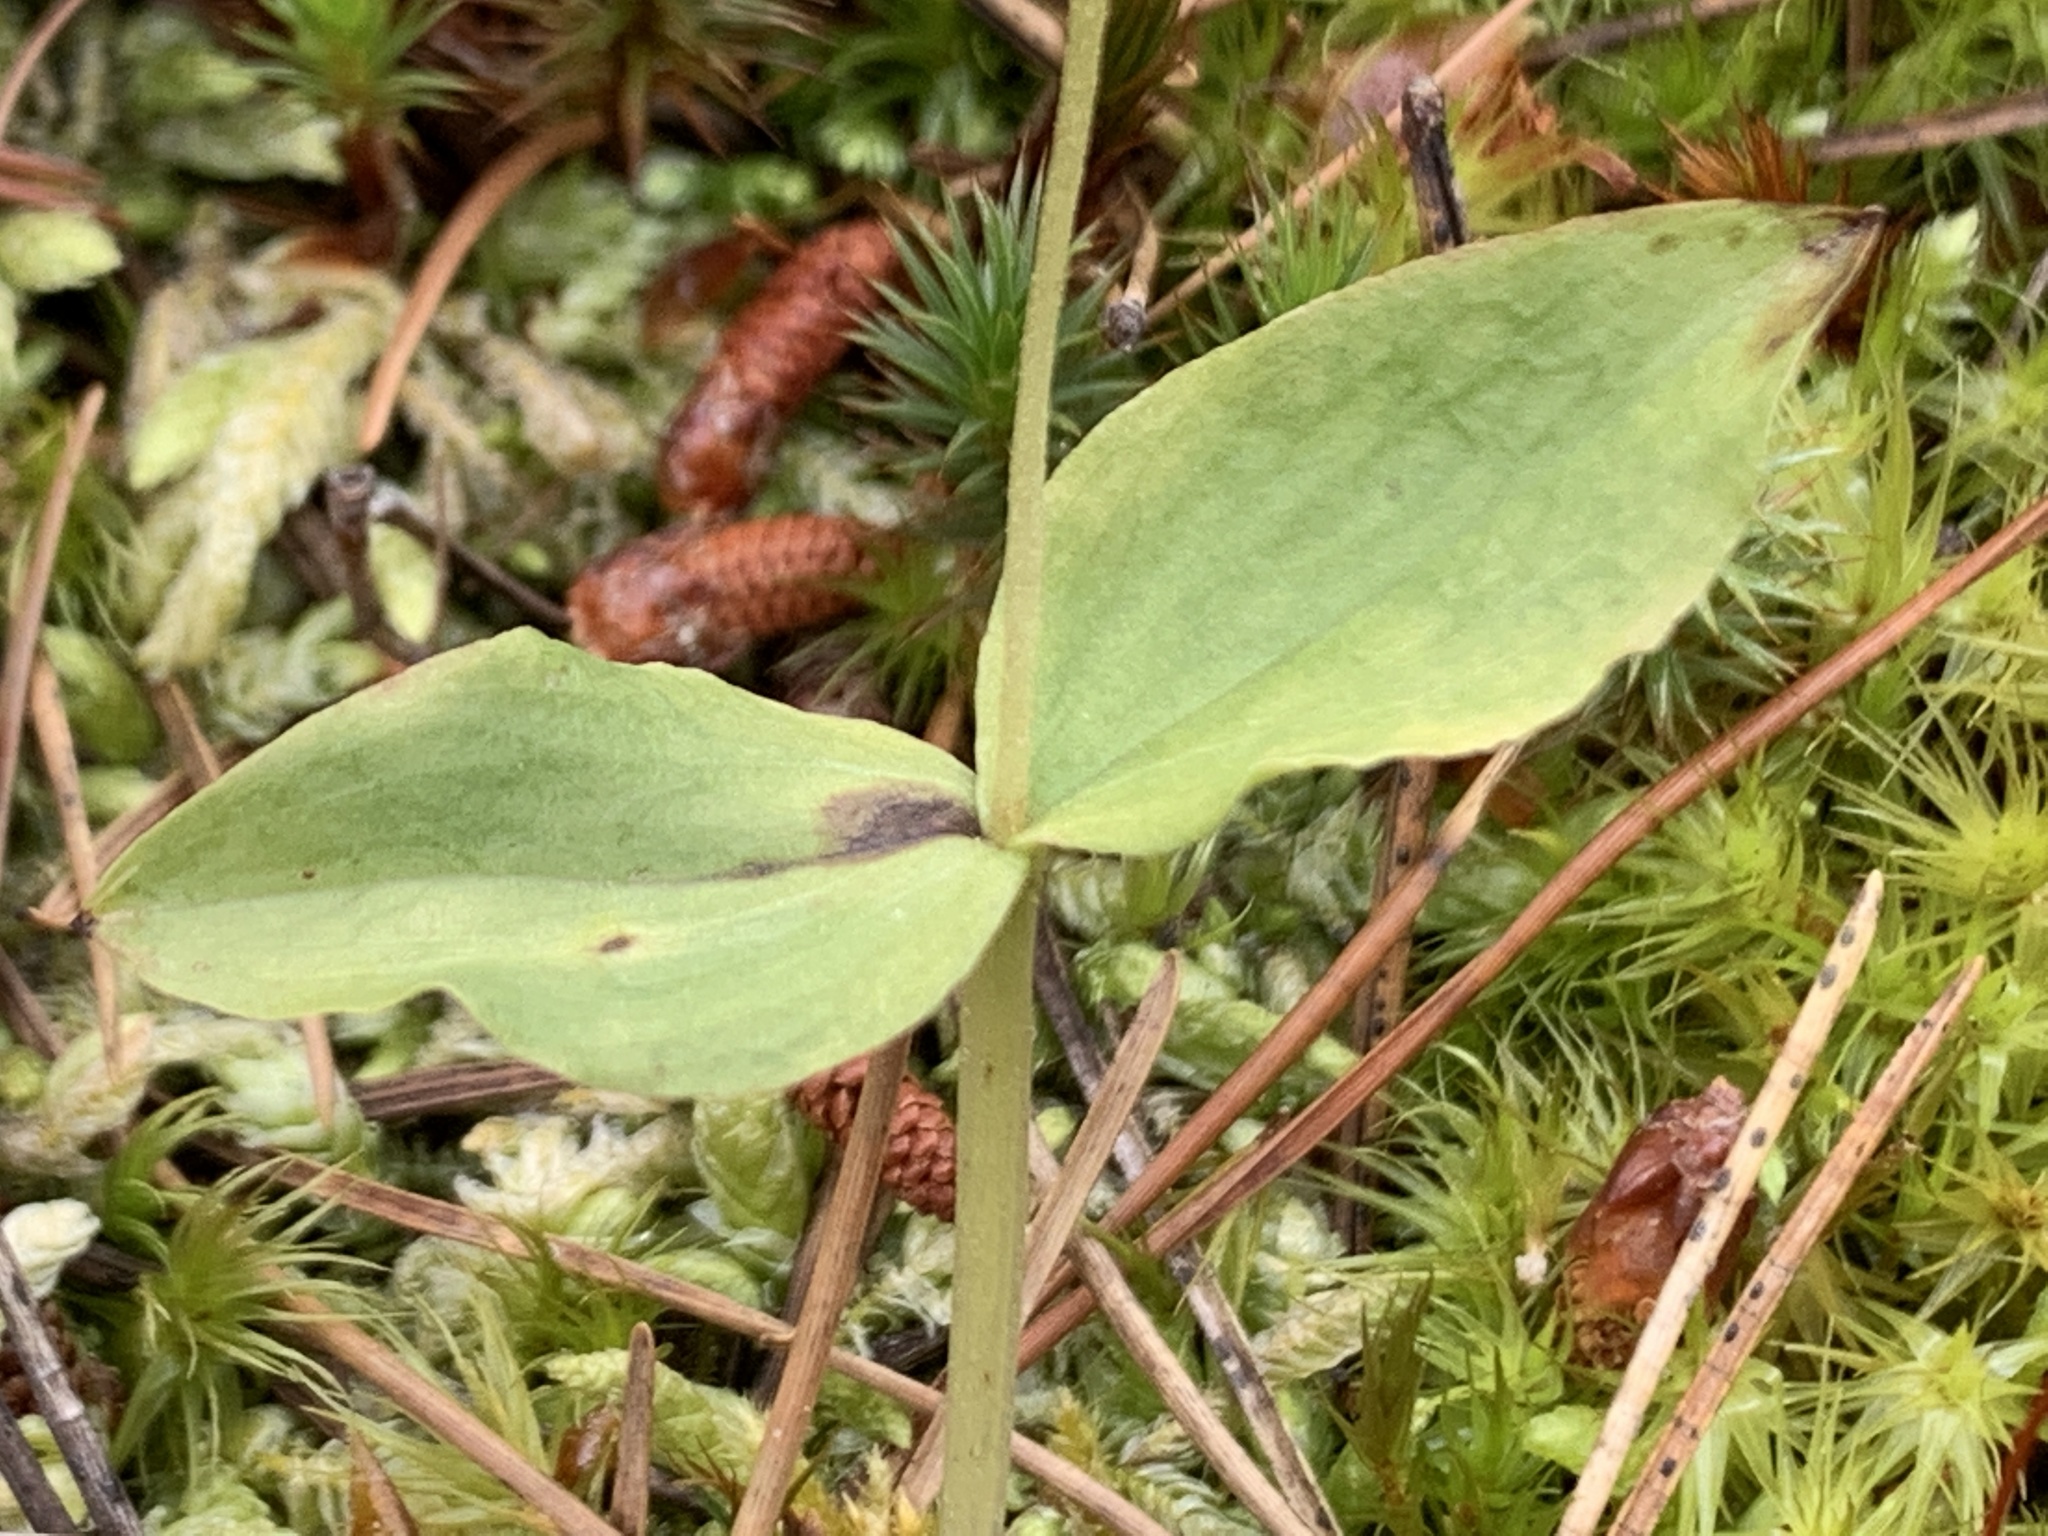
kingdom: Plantae
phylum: Tracheophyta
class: Liliopsida
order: Asparagales
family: Orchidaceae
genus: Neottia
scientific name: Neottia banksiana
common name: Northwestern twayblade
